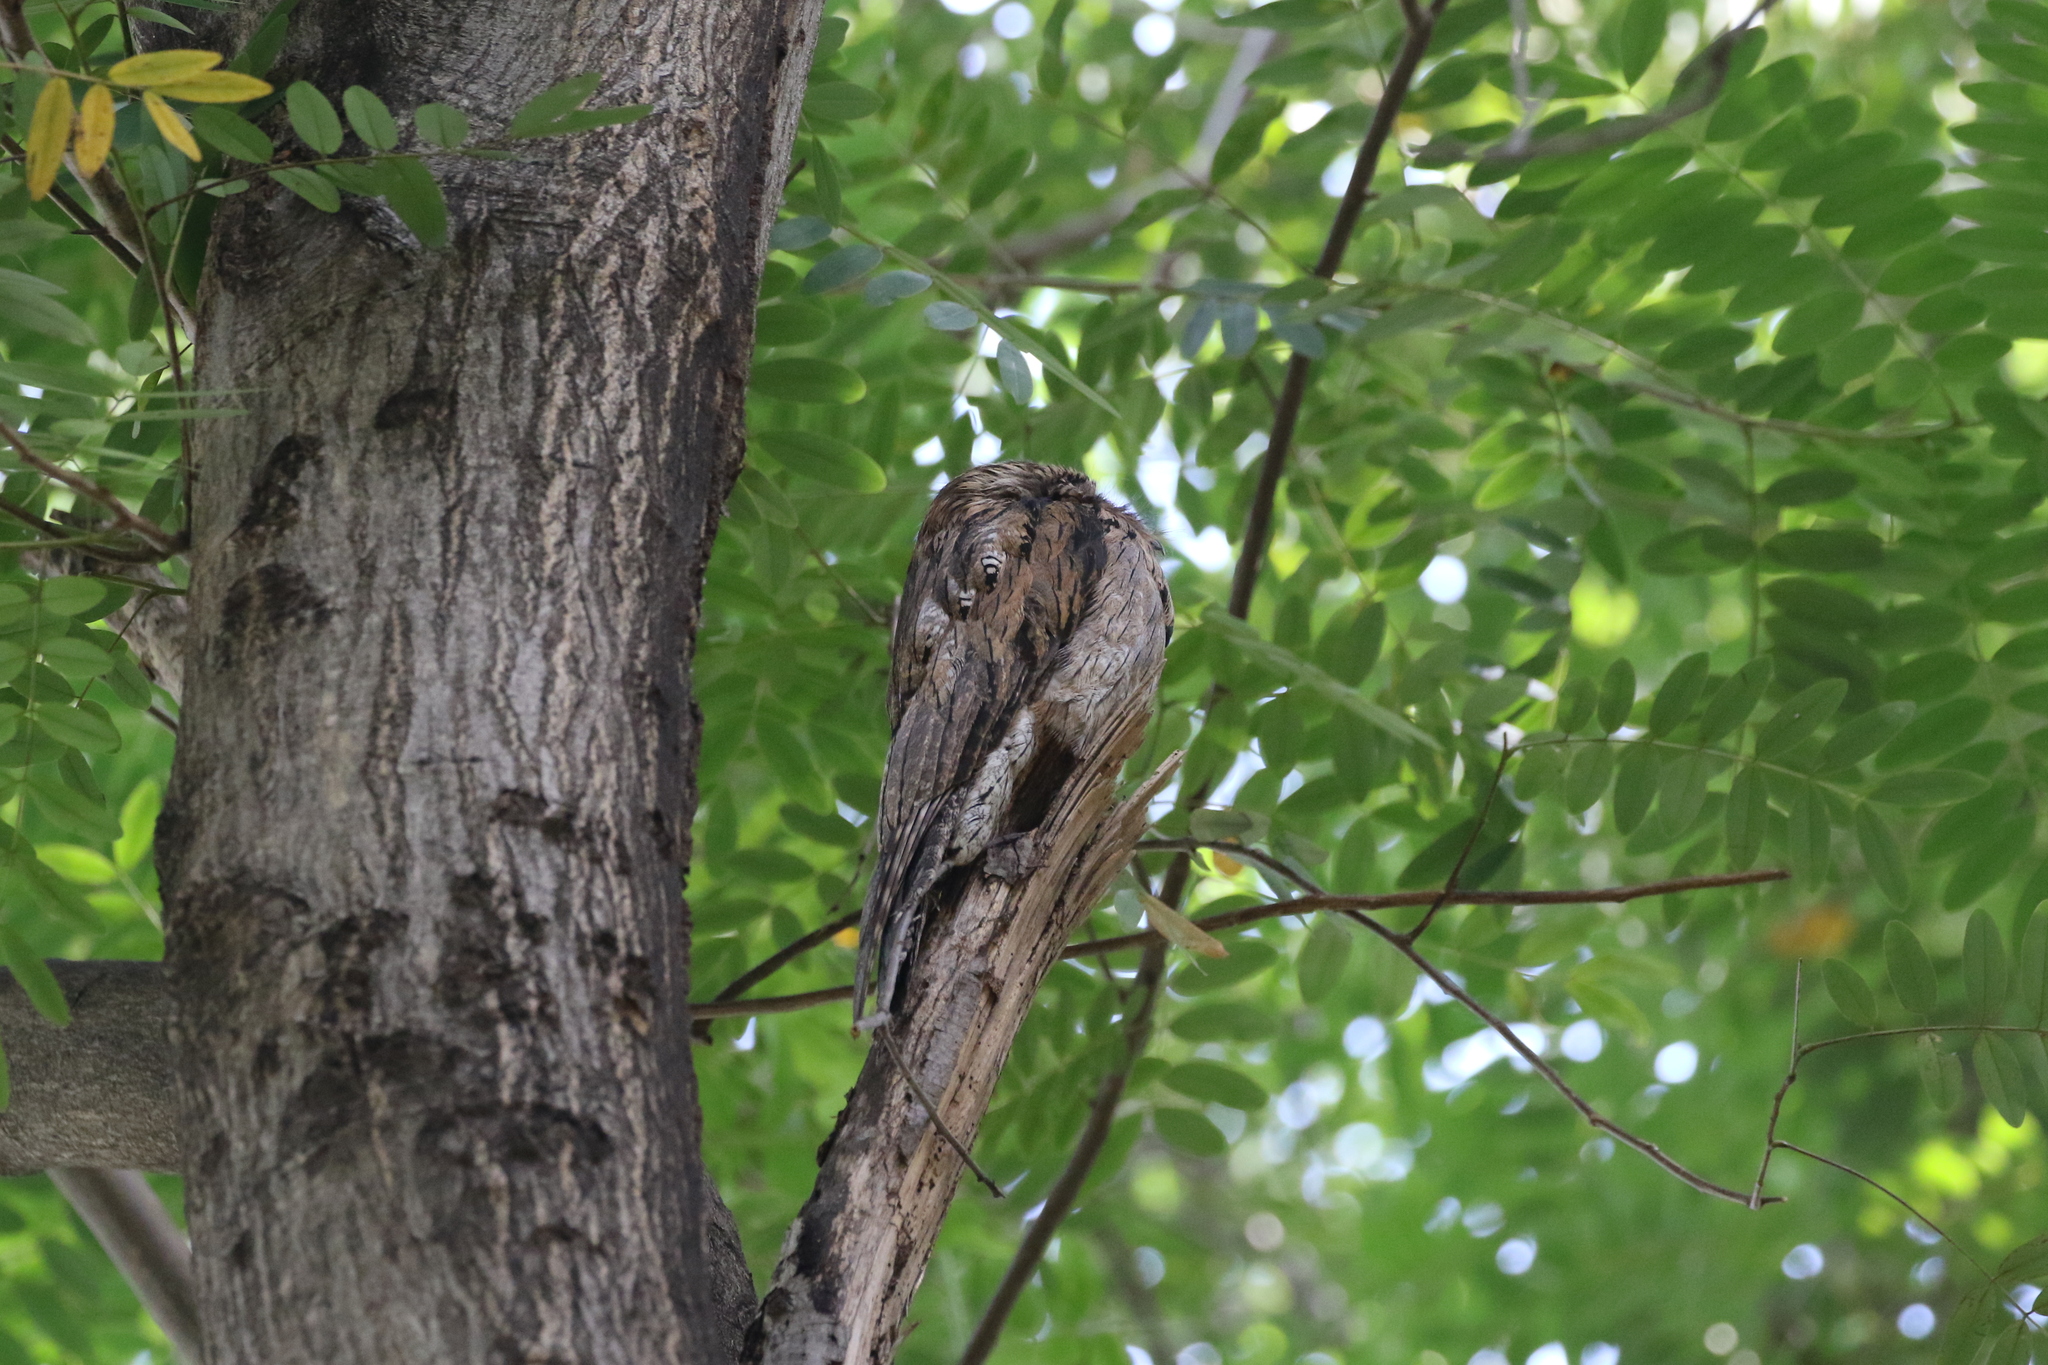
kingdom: Animalia
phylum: Chordata
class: Aves
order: Nyctibiiformes
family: Nyctibiidae
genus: Nyctibius
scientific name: Nyctibius jamaicensis
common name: Northern potoo
